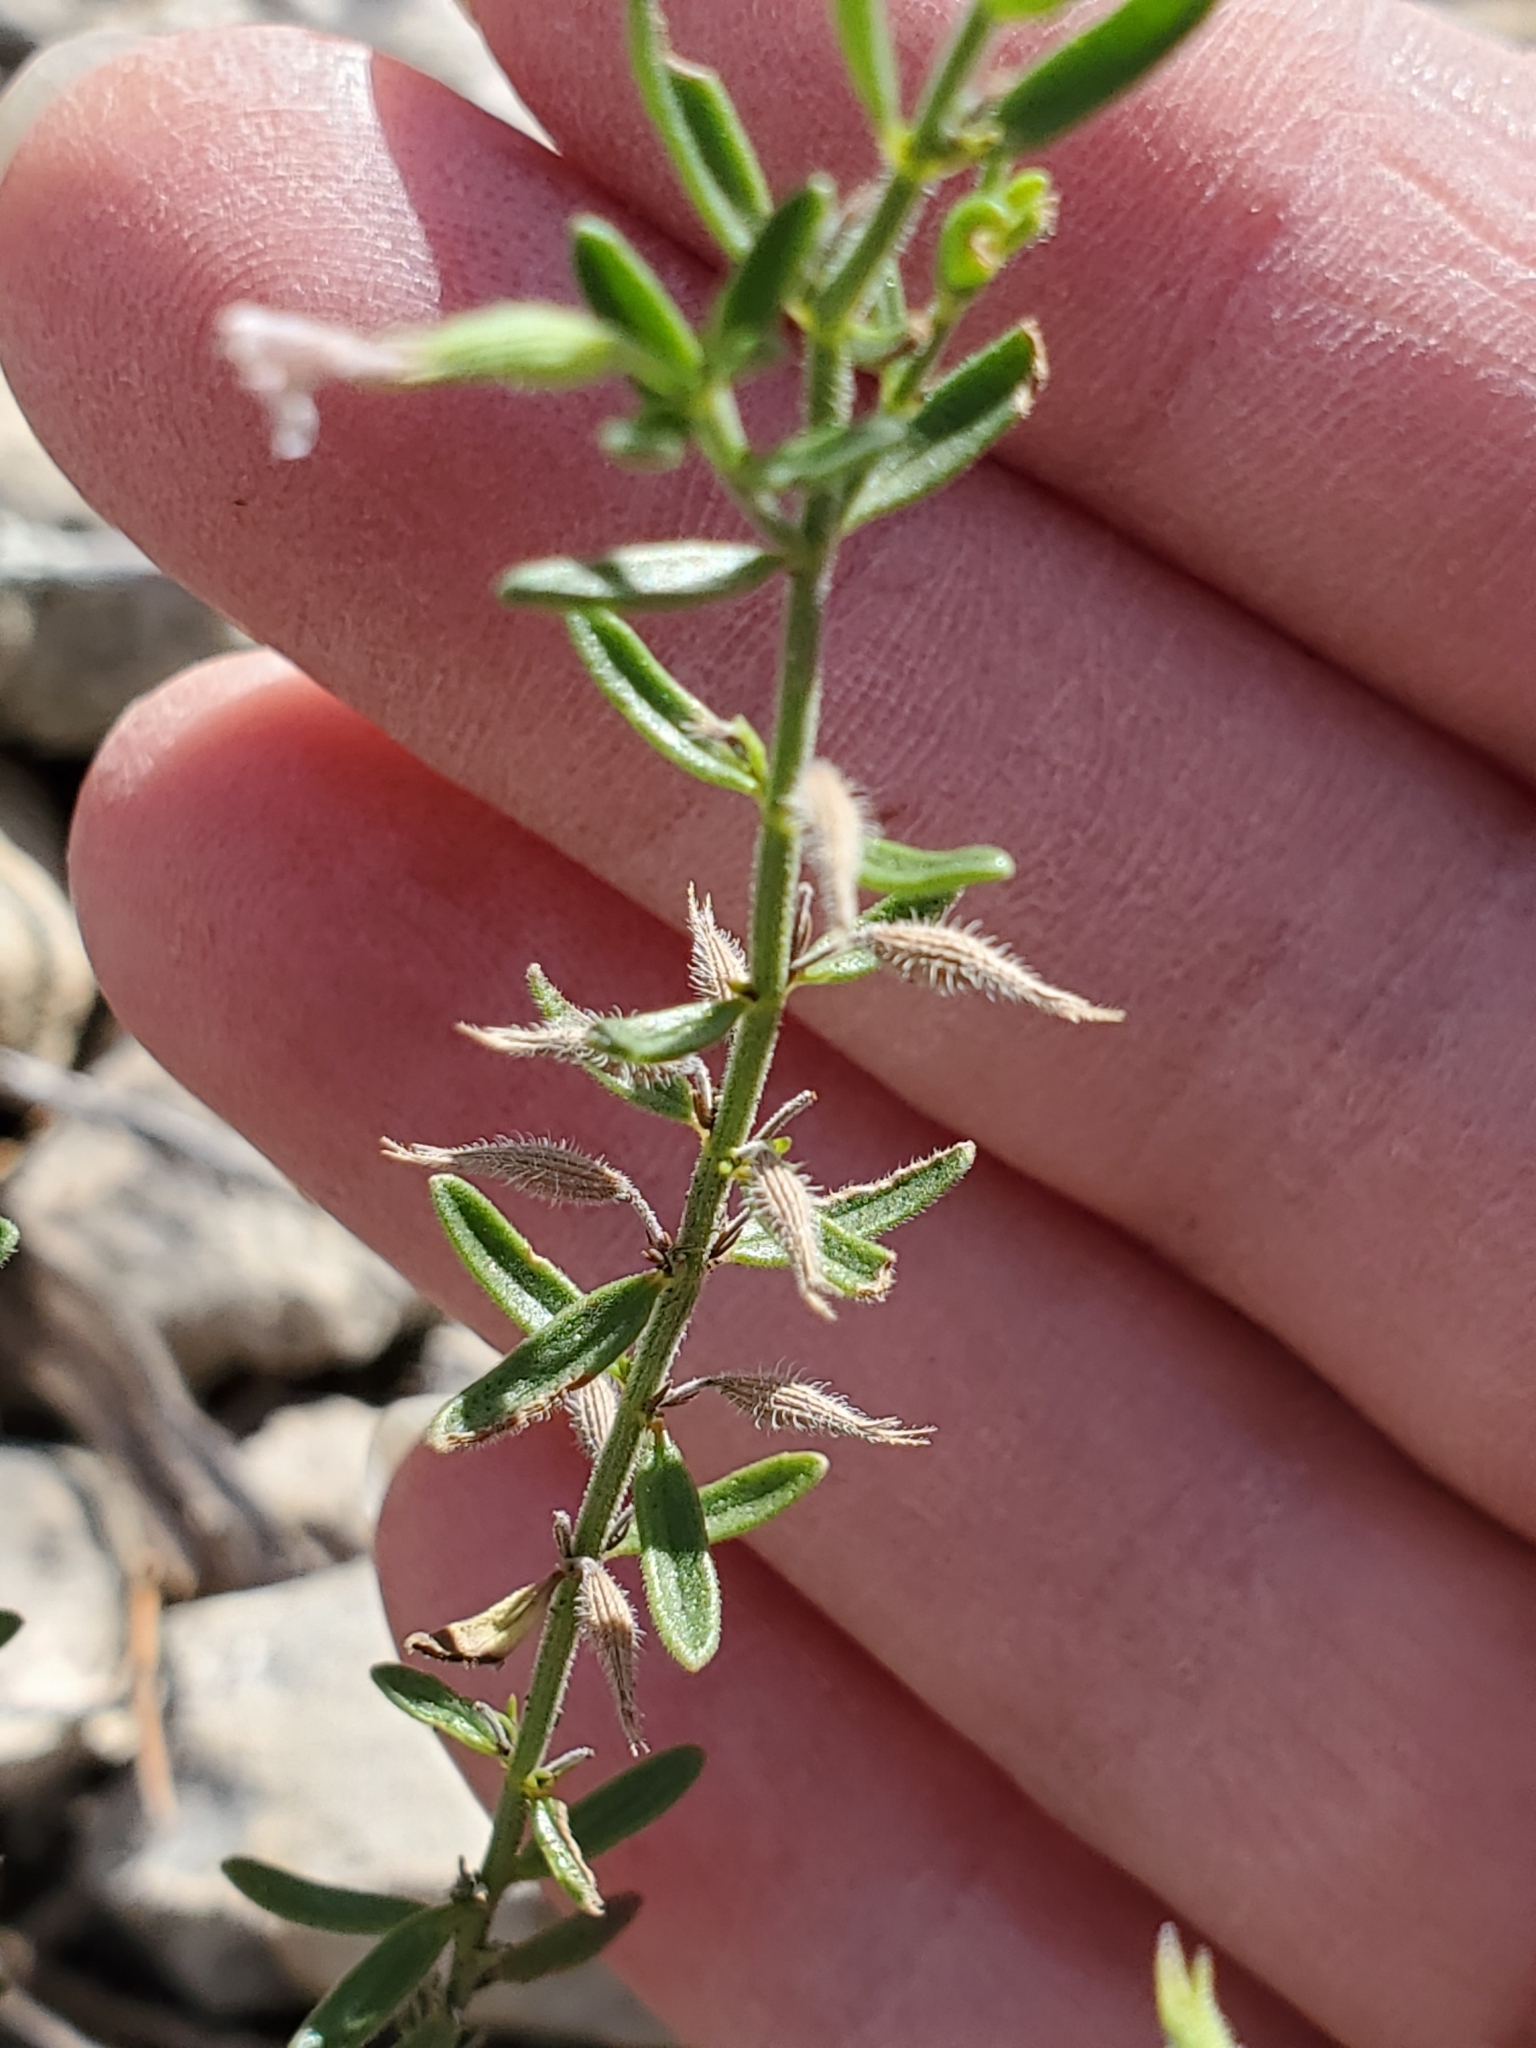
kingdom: Plantae
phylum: Tracheophyta
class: Magnoliopsida
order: Lamiales
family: Lamiaceae
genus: Hedeoma
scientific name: Hedeoma reverchonii
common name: Reverchon's false penny-royal
